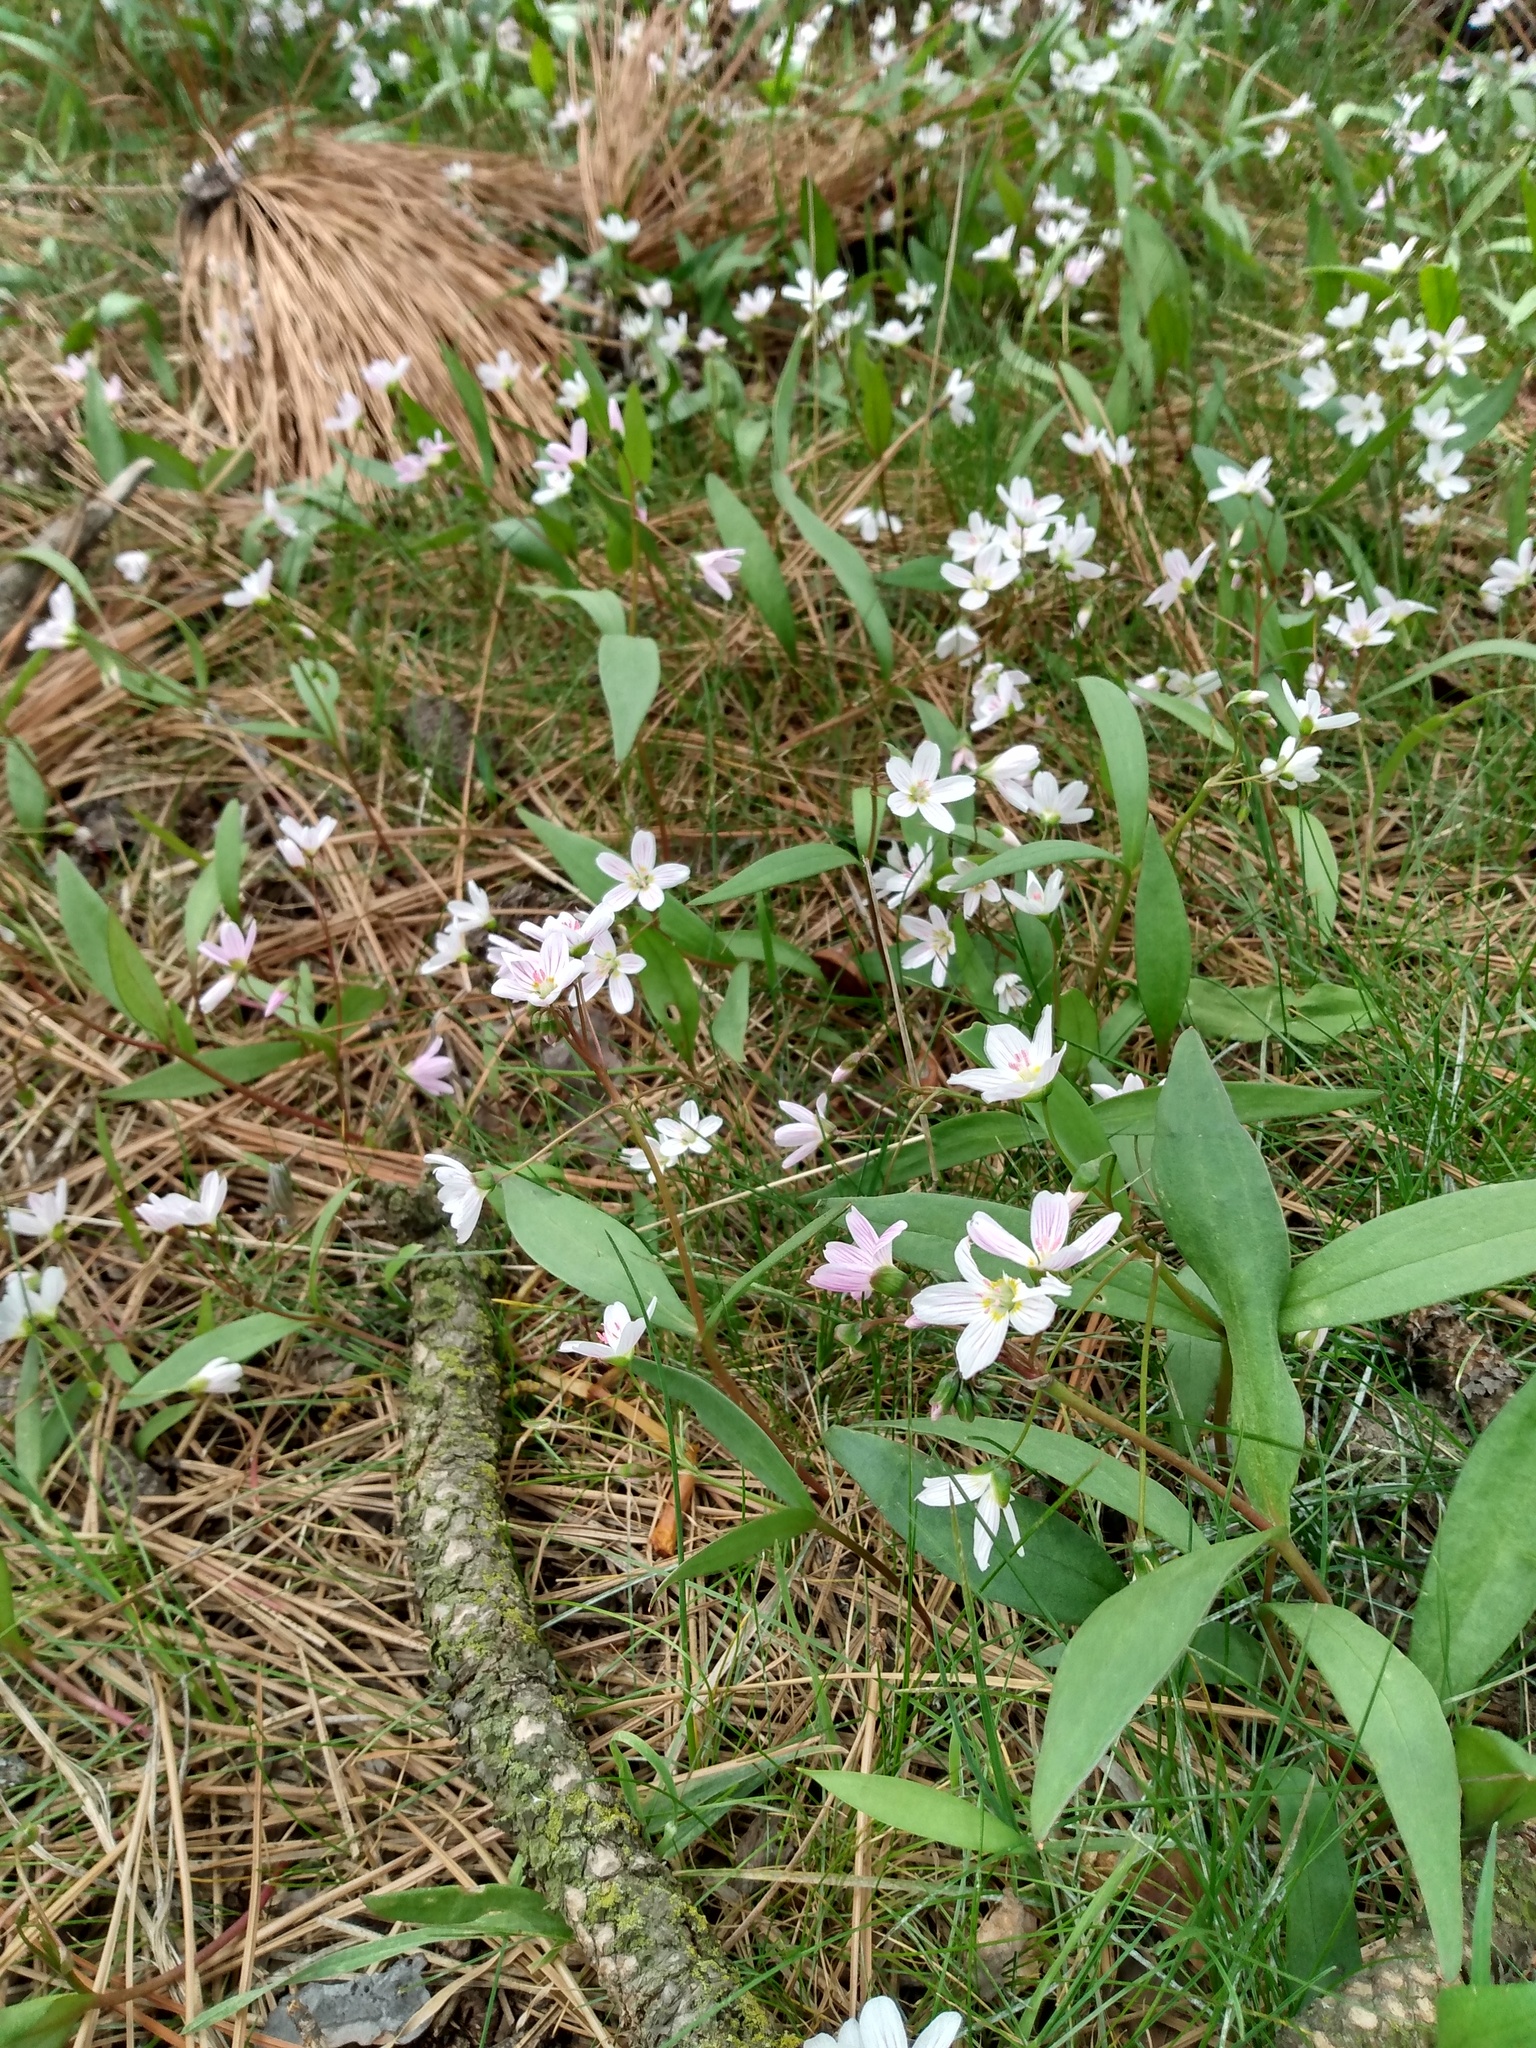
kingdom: Plantae
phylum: Tracheophyta
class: Magnoliopsida
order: Caryophyllales
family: Montiaceae
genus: Claytonia
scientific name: Claytonia lanceolata
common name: Western spring-beauty
